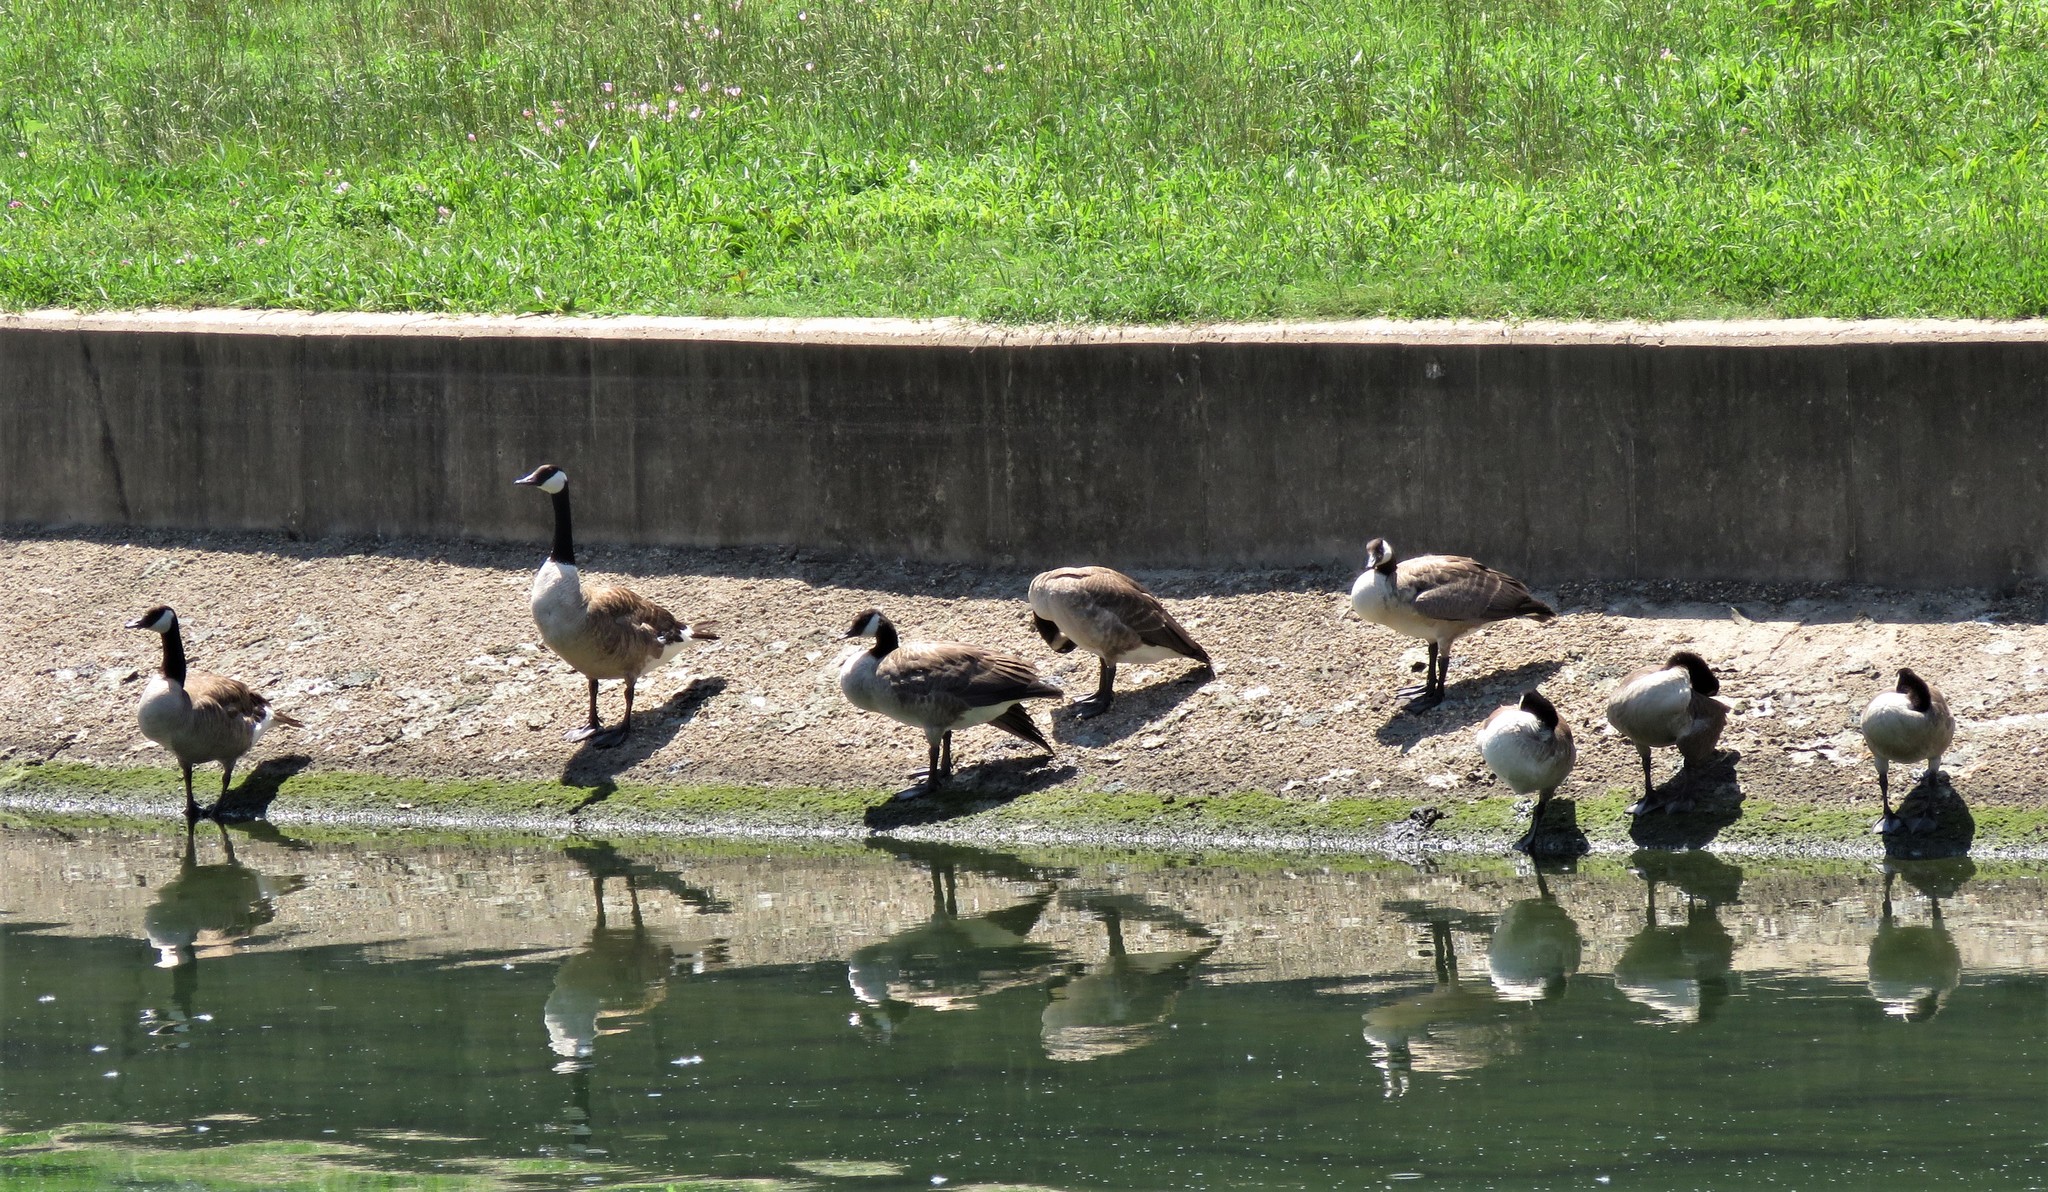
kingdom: Animalia
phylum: Chordata
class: Aves
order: Anseriformes
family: Anatidae
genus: Branta
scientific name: Branta canadensis
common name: Canada goose
